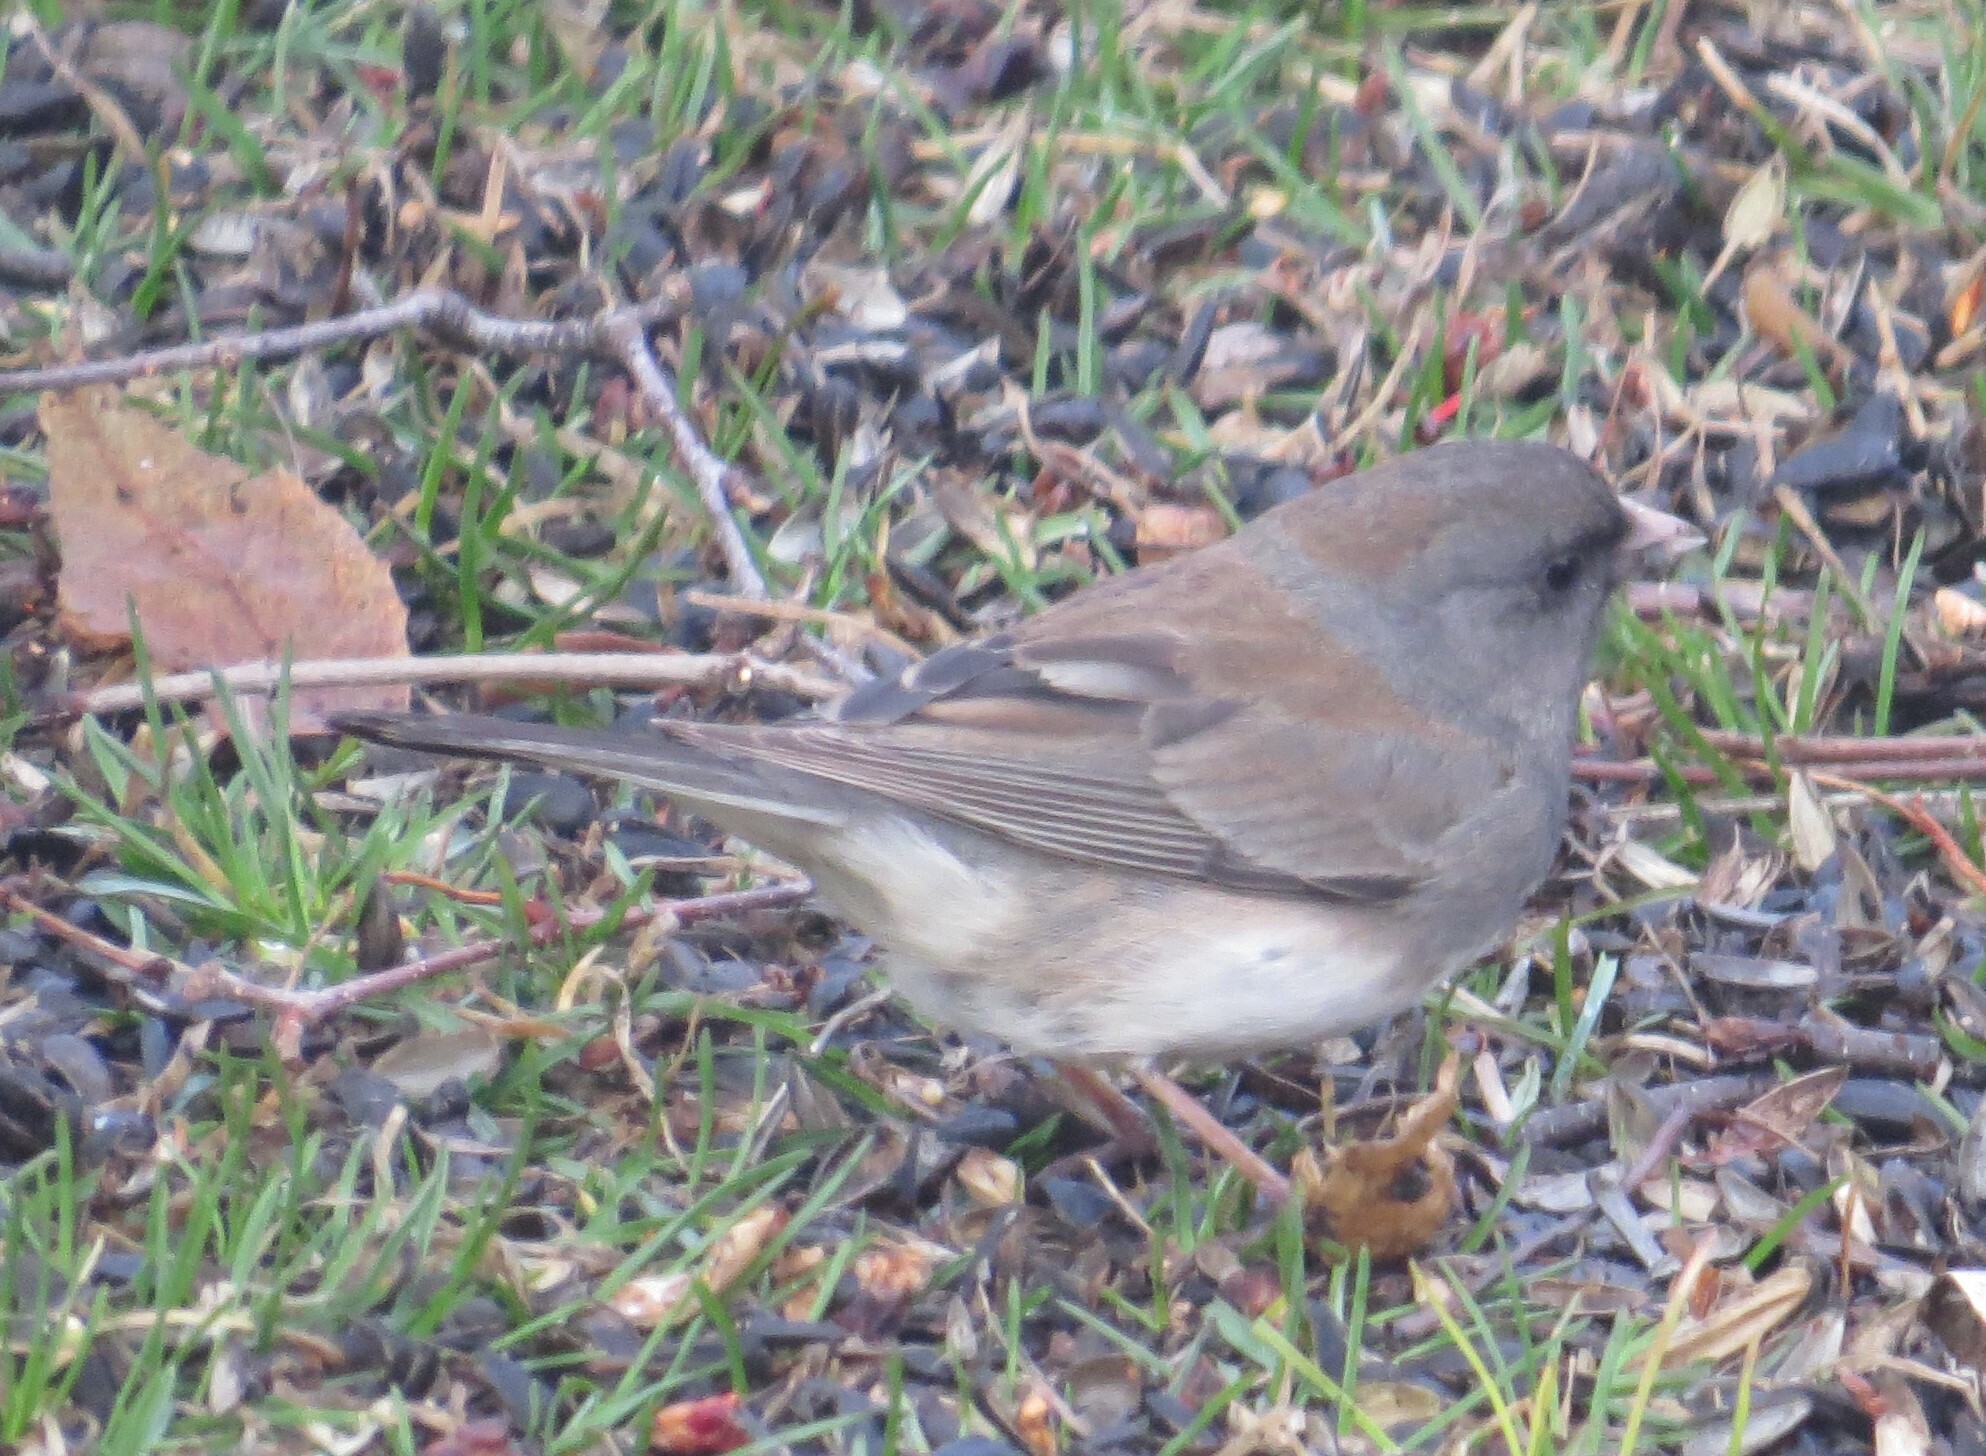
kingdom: Animalia
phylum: Chordata
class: Aves
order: Passeriformes
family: Passerellidae
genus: Junco
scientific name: Junco hyemalis
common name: Dark-eyed junco
